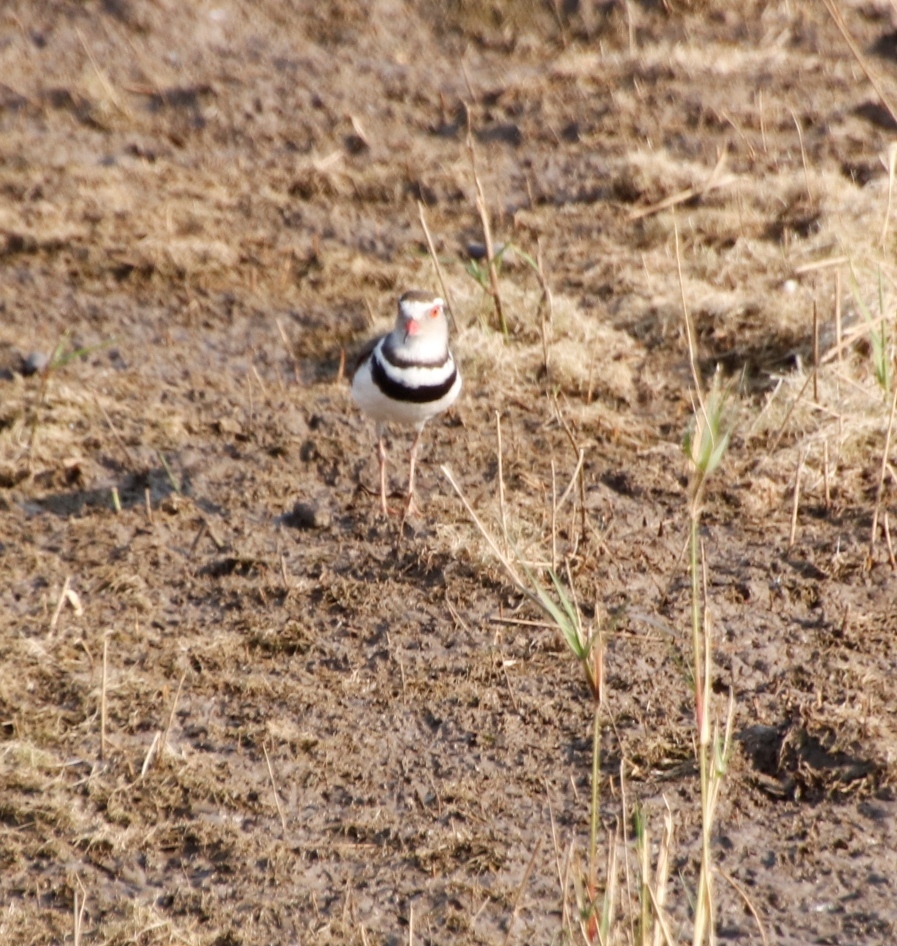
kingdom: Animalia
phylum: Chordata
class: Aves
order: Charadriiformes
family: Charadriidae
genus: Charadrius
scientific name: Charadrius tricollaris
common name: Three-banded plover
